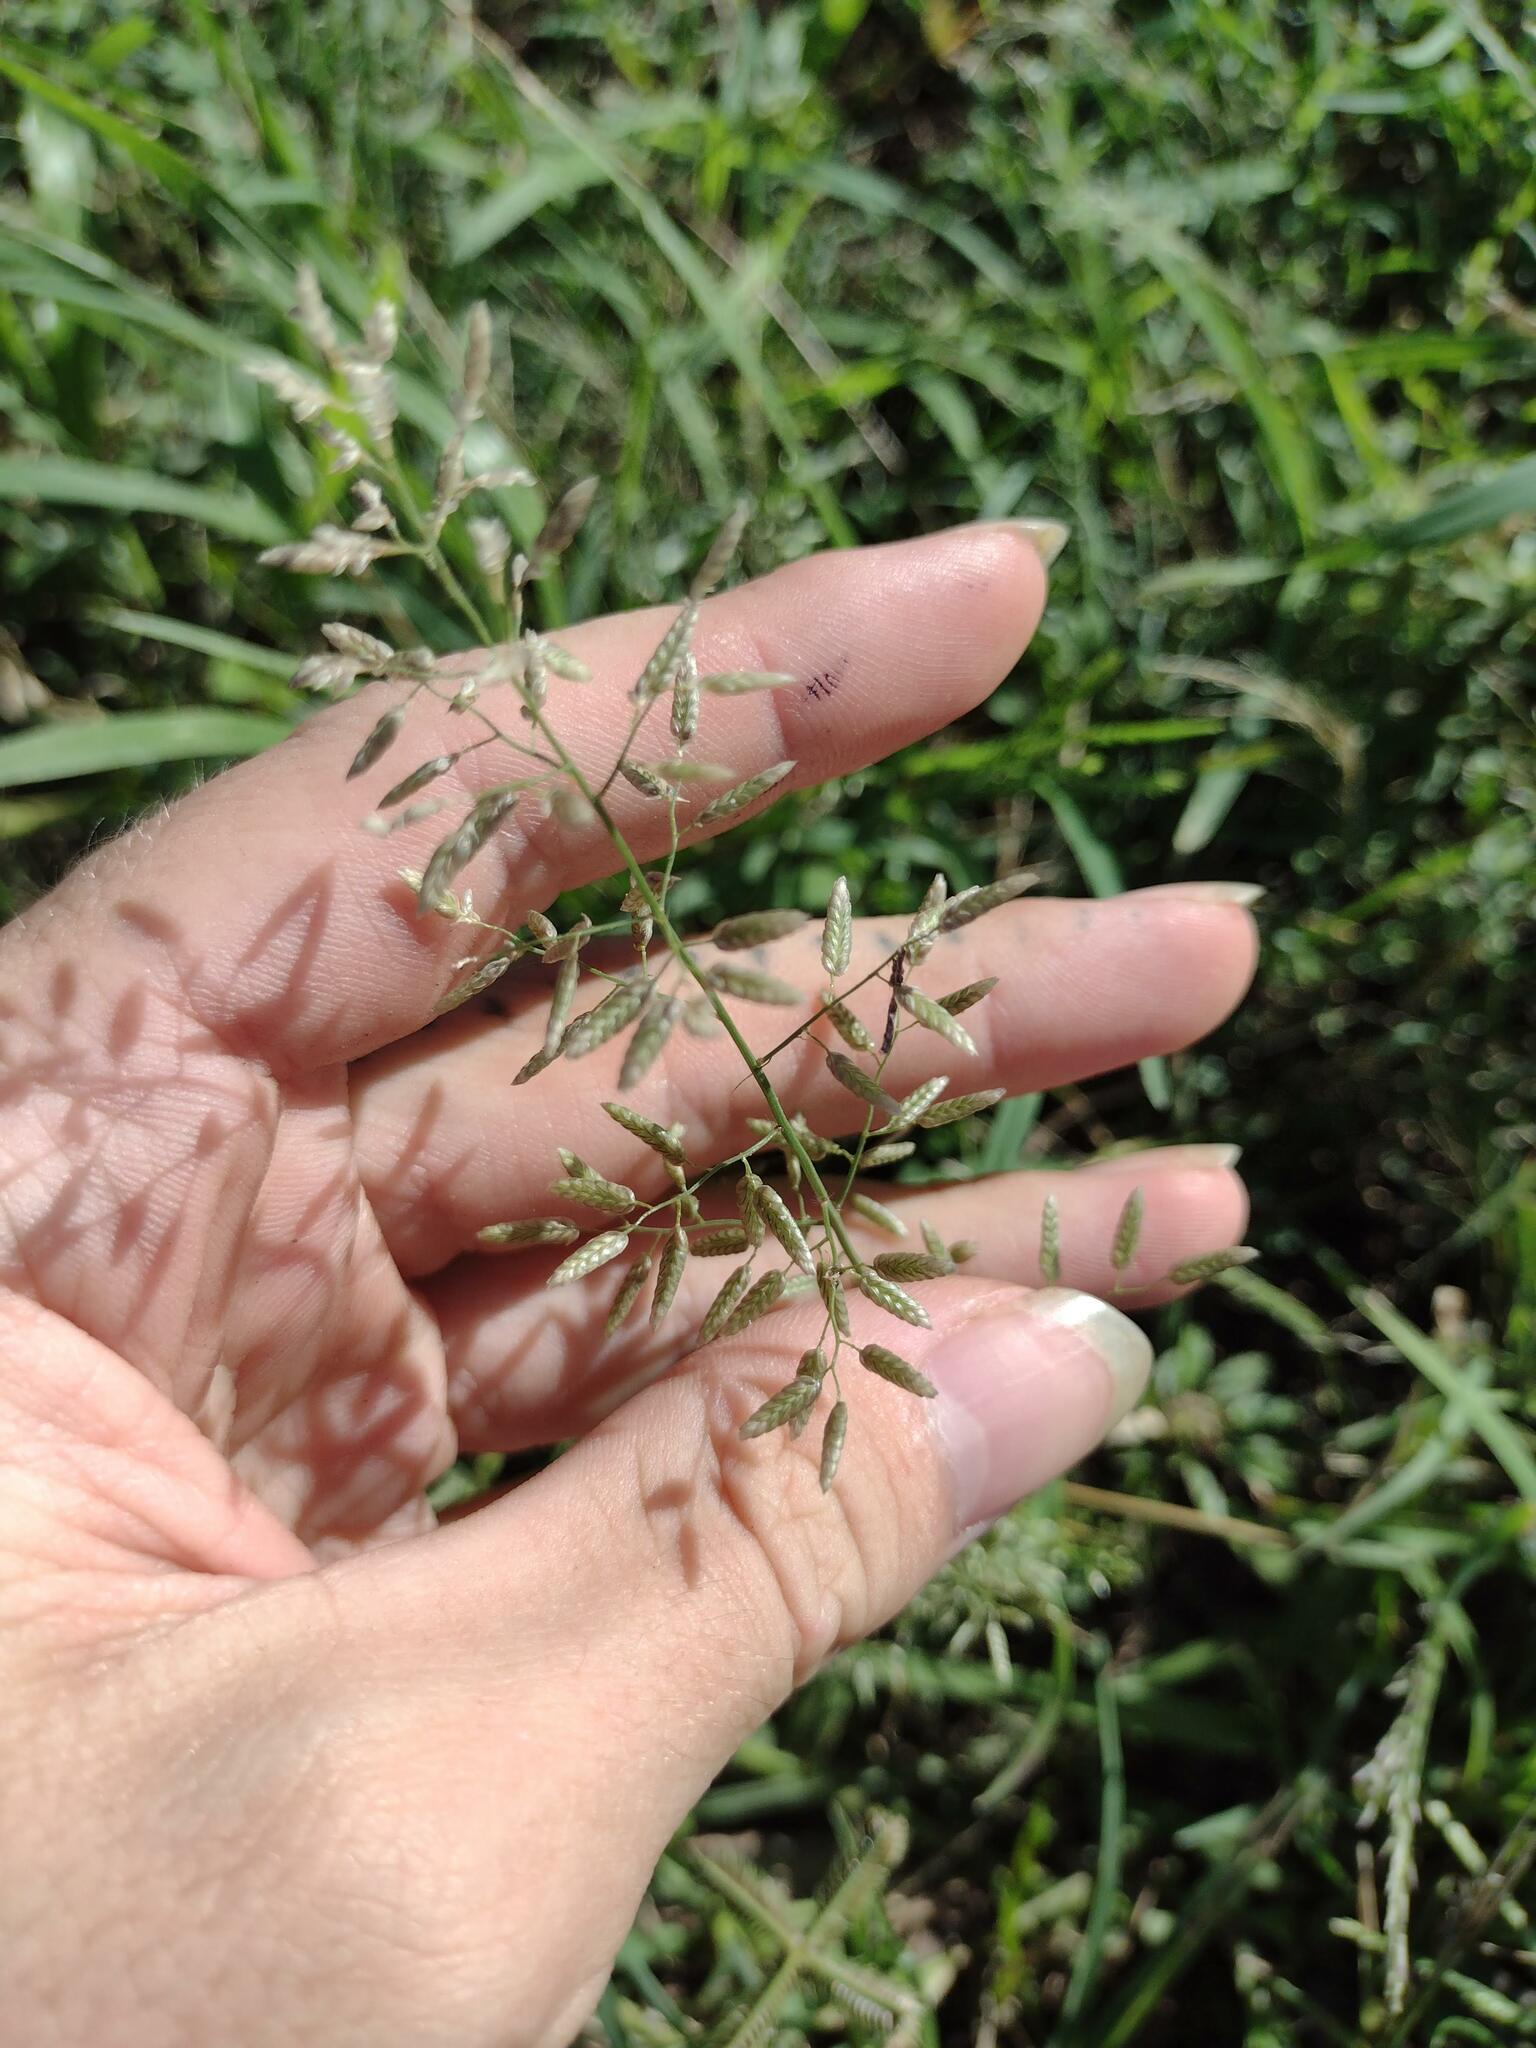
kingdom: Plantae
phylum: Tracheophyta
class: Liliopsida
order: Poales
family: Poaceae
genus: Eragrostis
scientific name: Eragrostis cilianensis
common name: Stinkgrass
